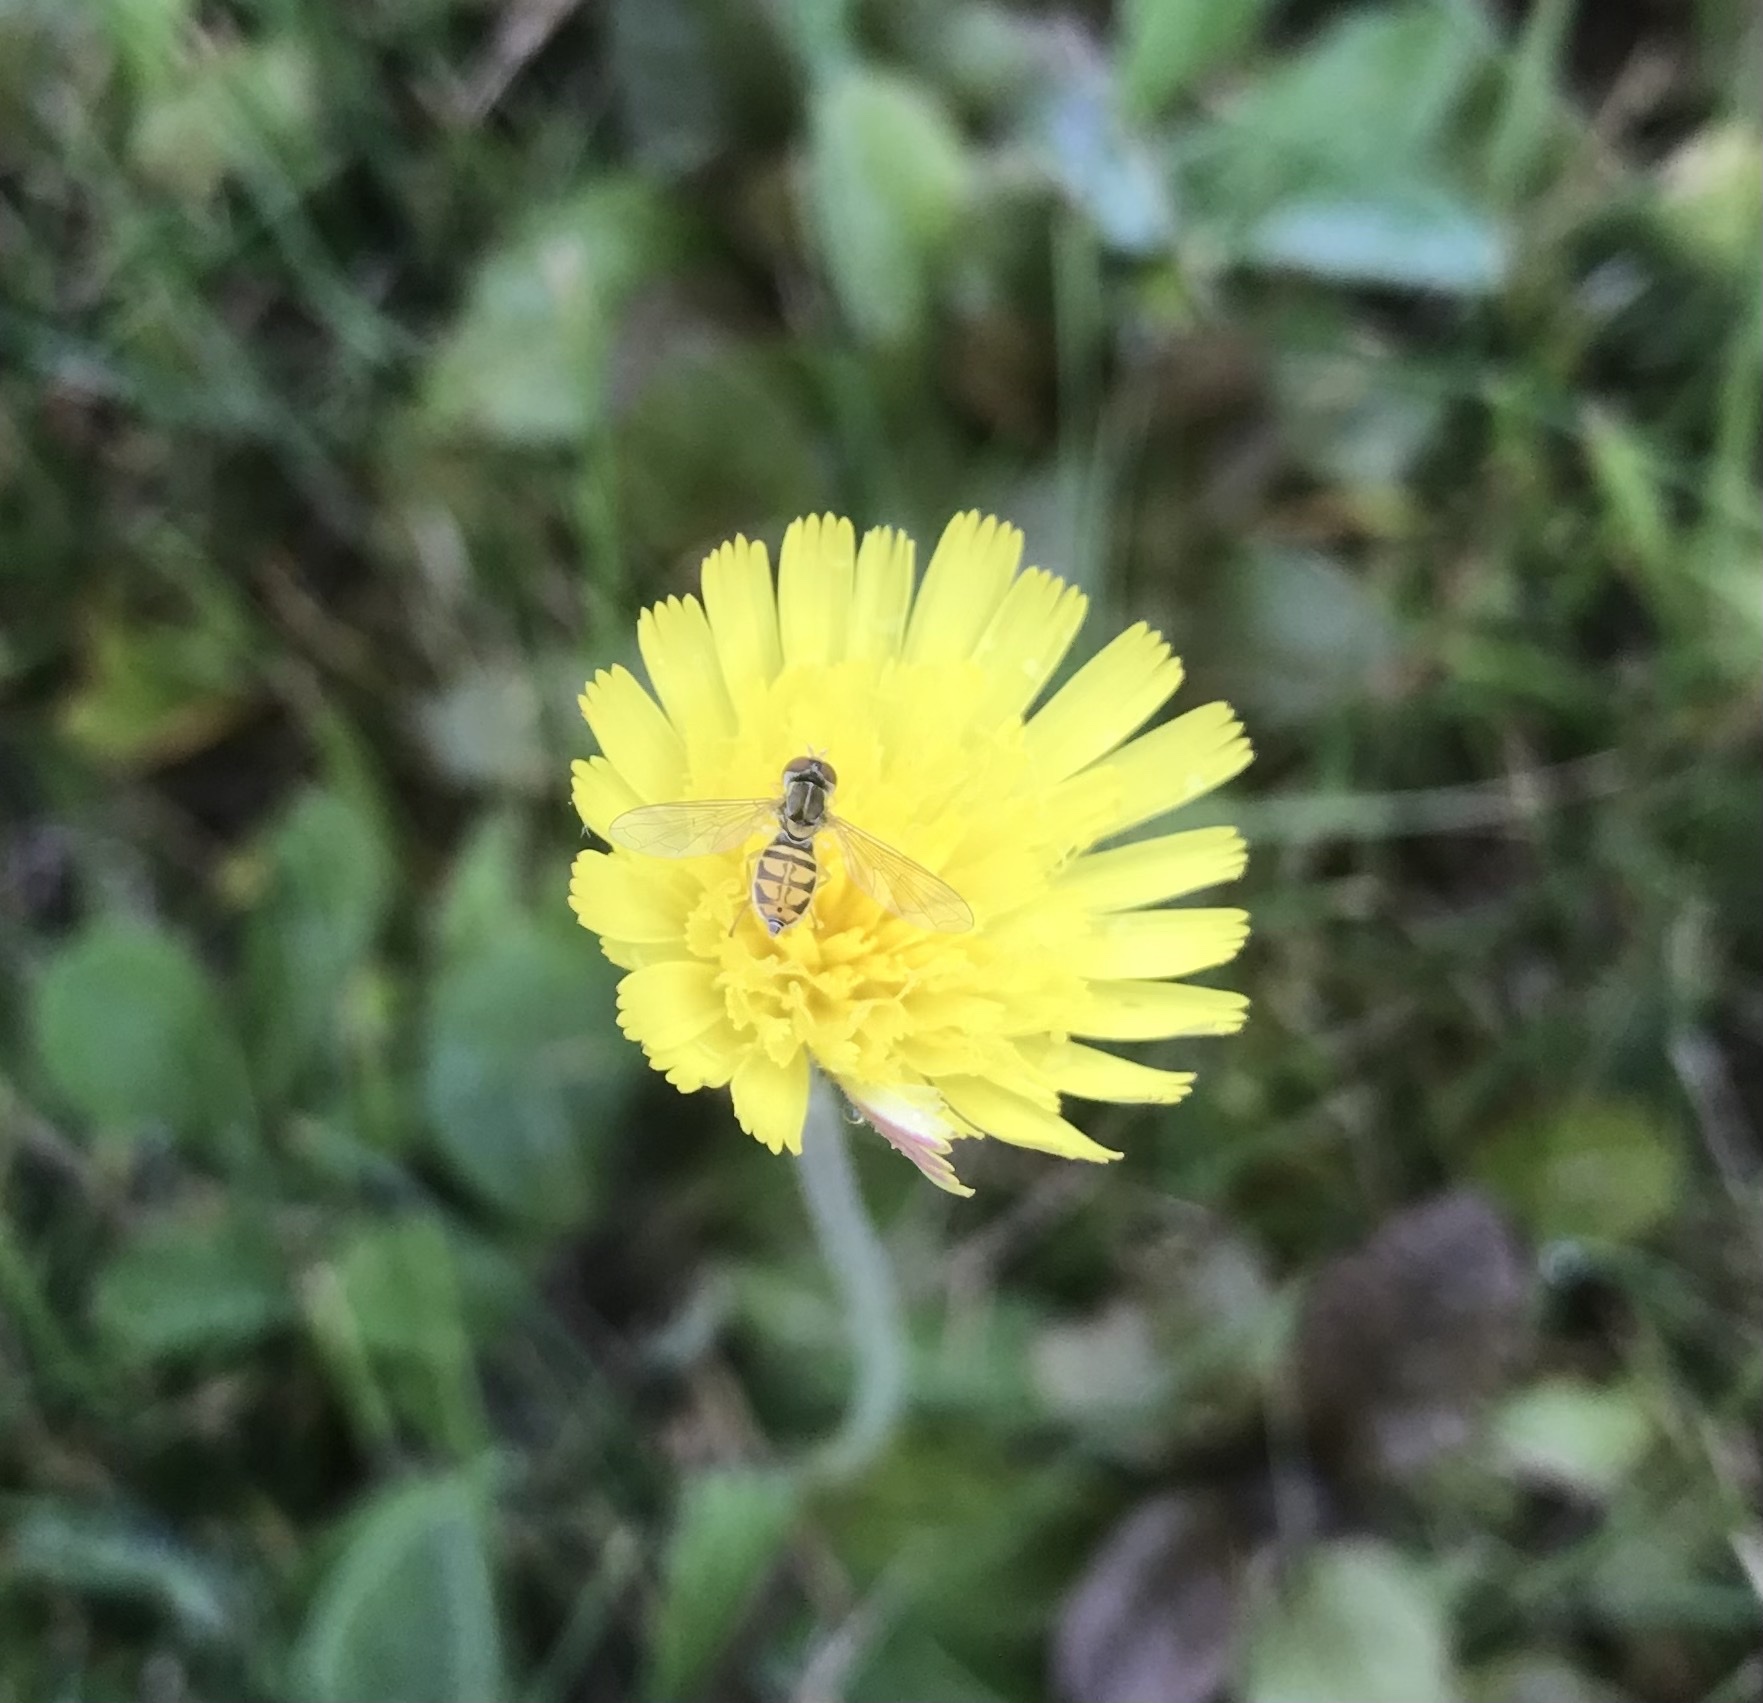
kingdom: Animalia
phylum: Arthropoda
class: Insecta
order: Diptera
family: Syrphidae
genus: Toxomerus
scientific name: Toxomerus marginatus
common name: Syrphid fly
